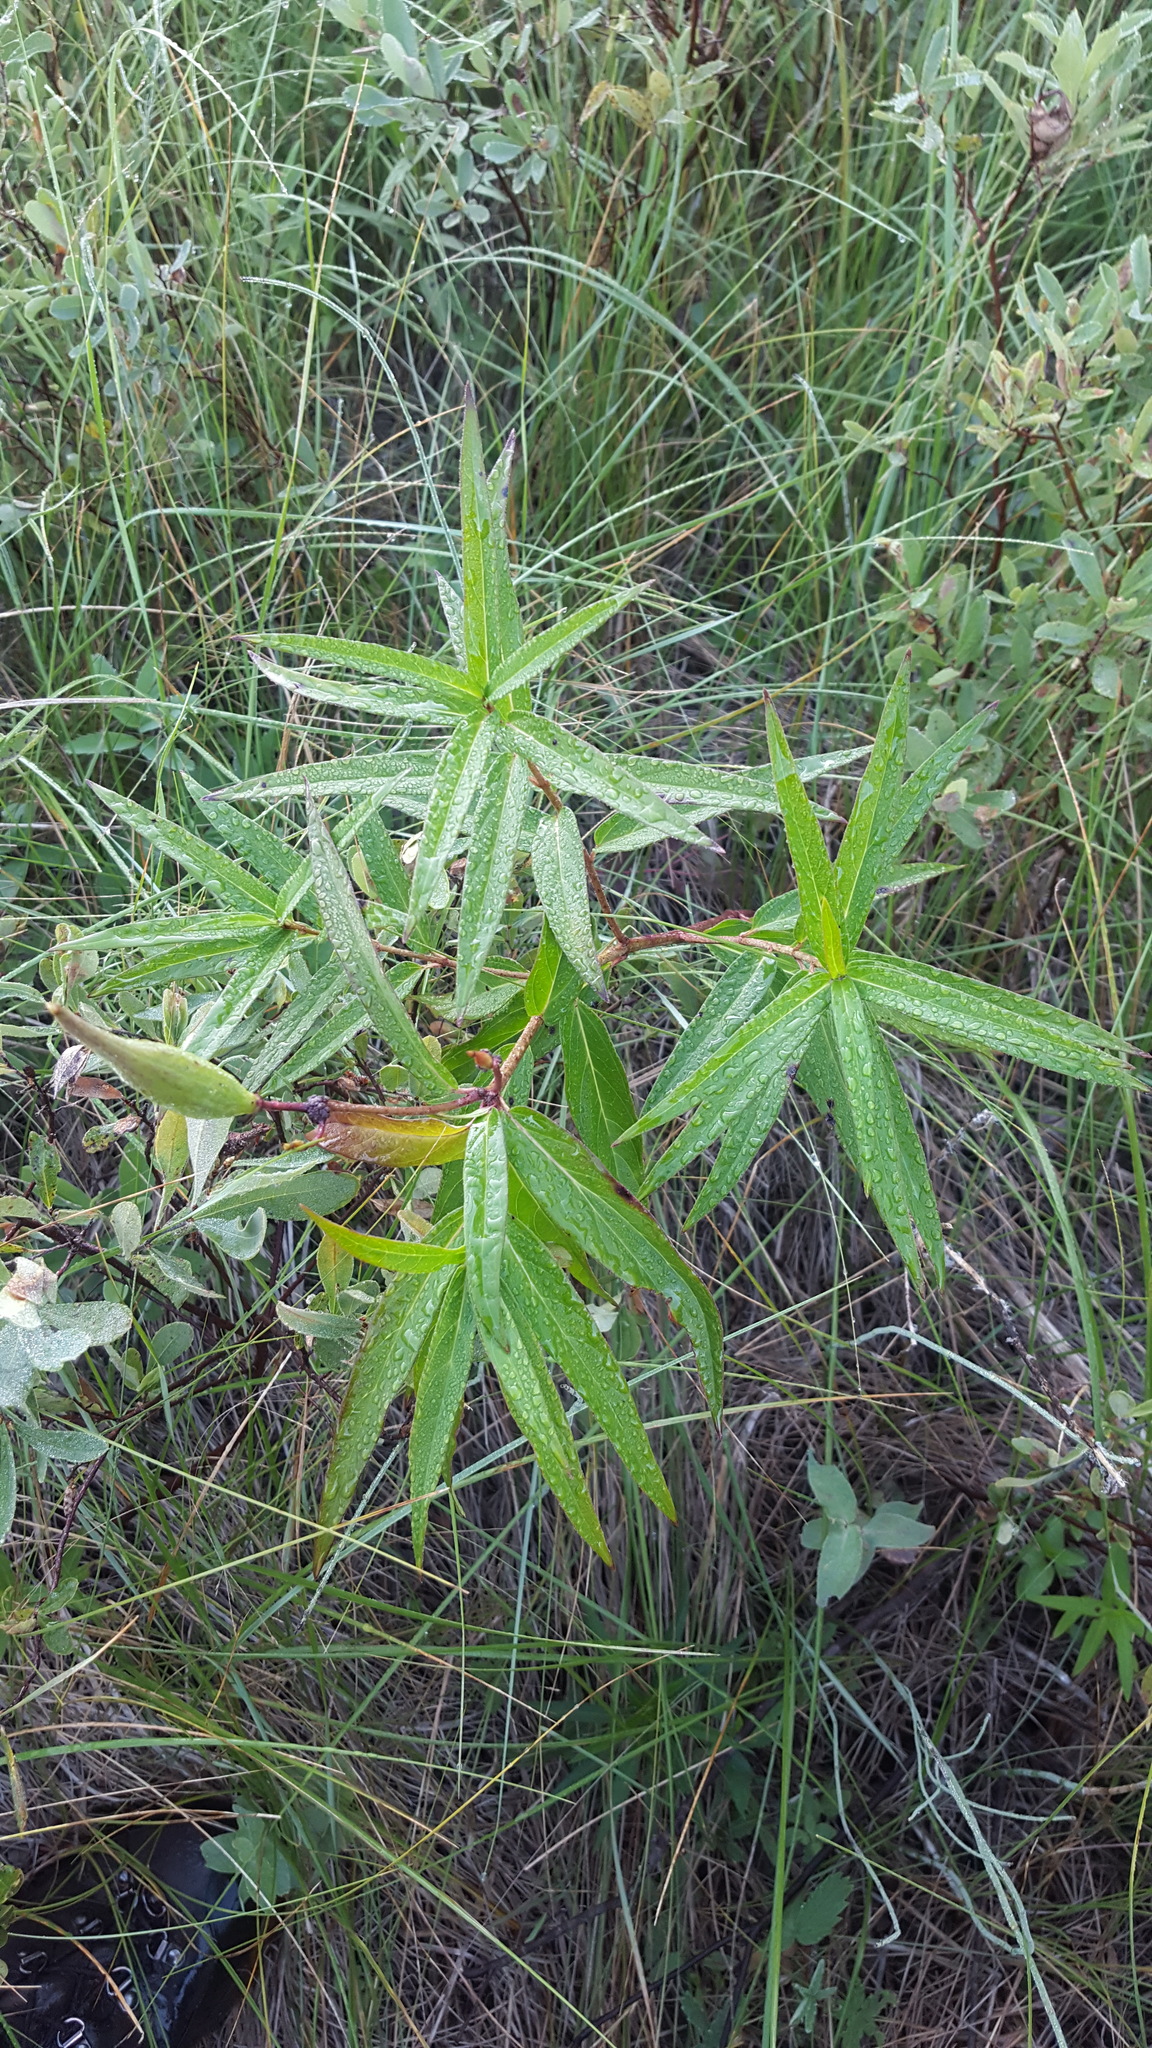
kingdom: Plantae
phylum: Tracheophyta
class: Magnoliopsida
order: Gentianales
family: Apocynaceae
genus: Asclepias
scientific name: Asclepias incarnata
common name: Swamp milkweed
